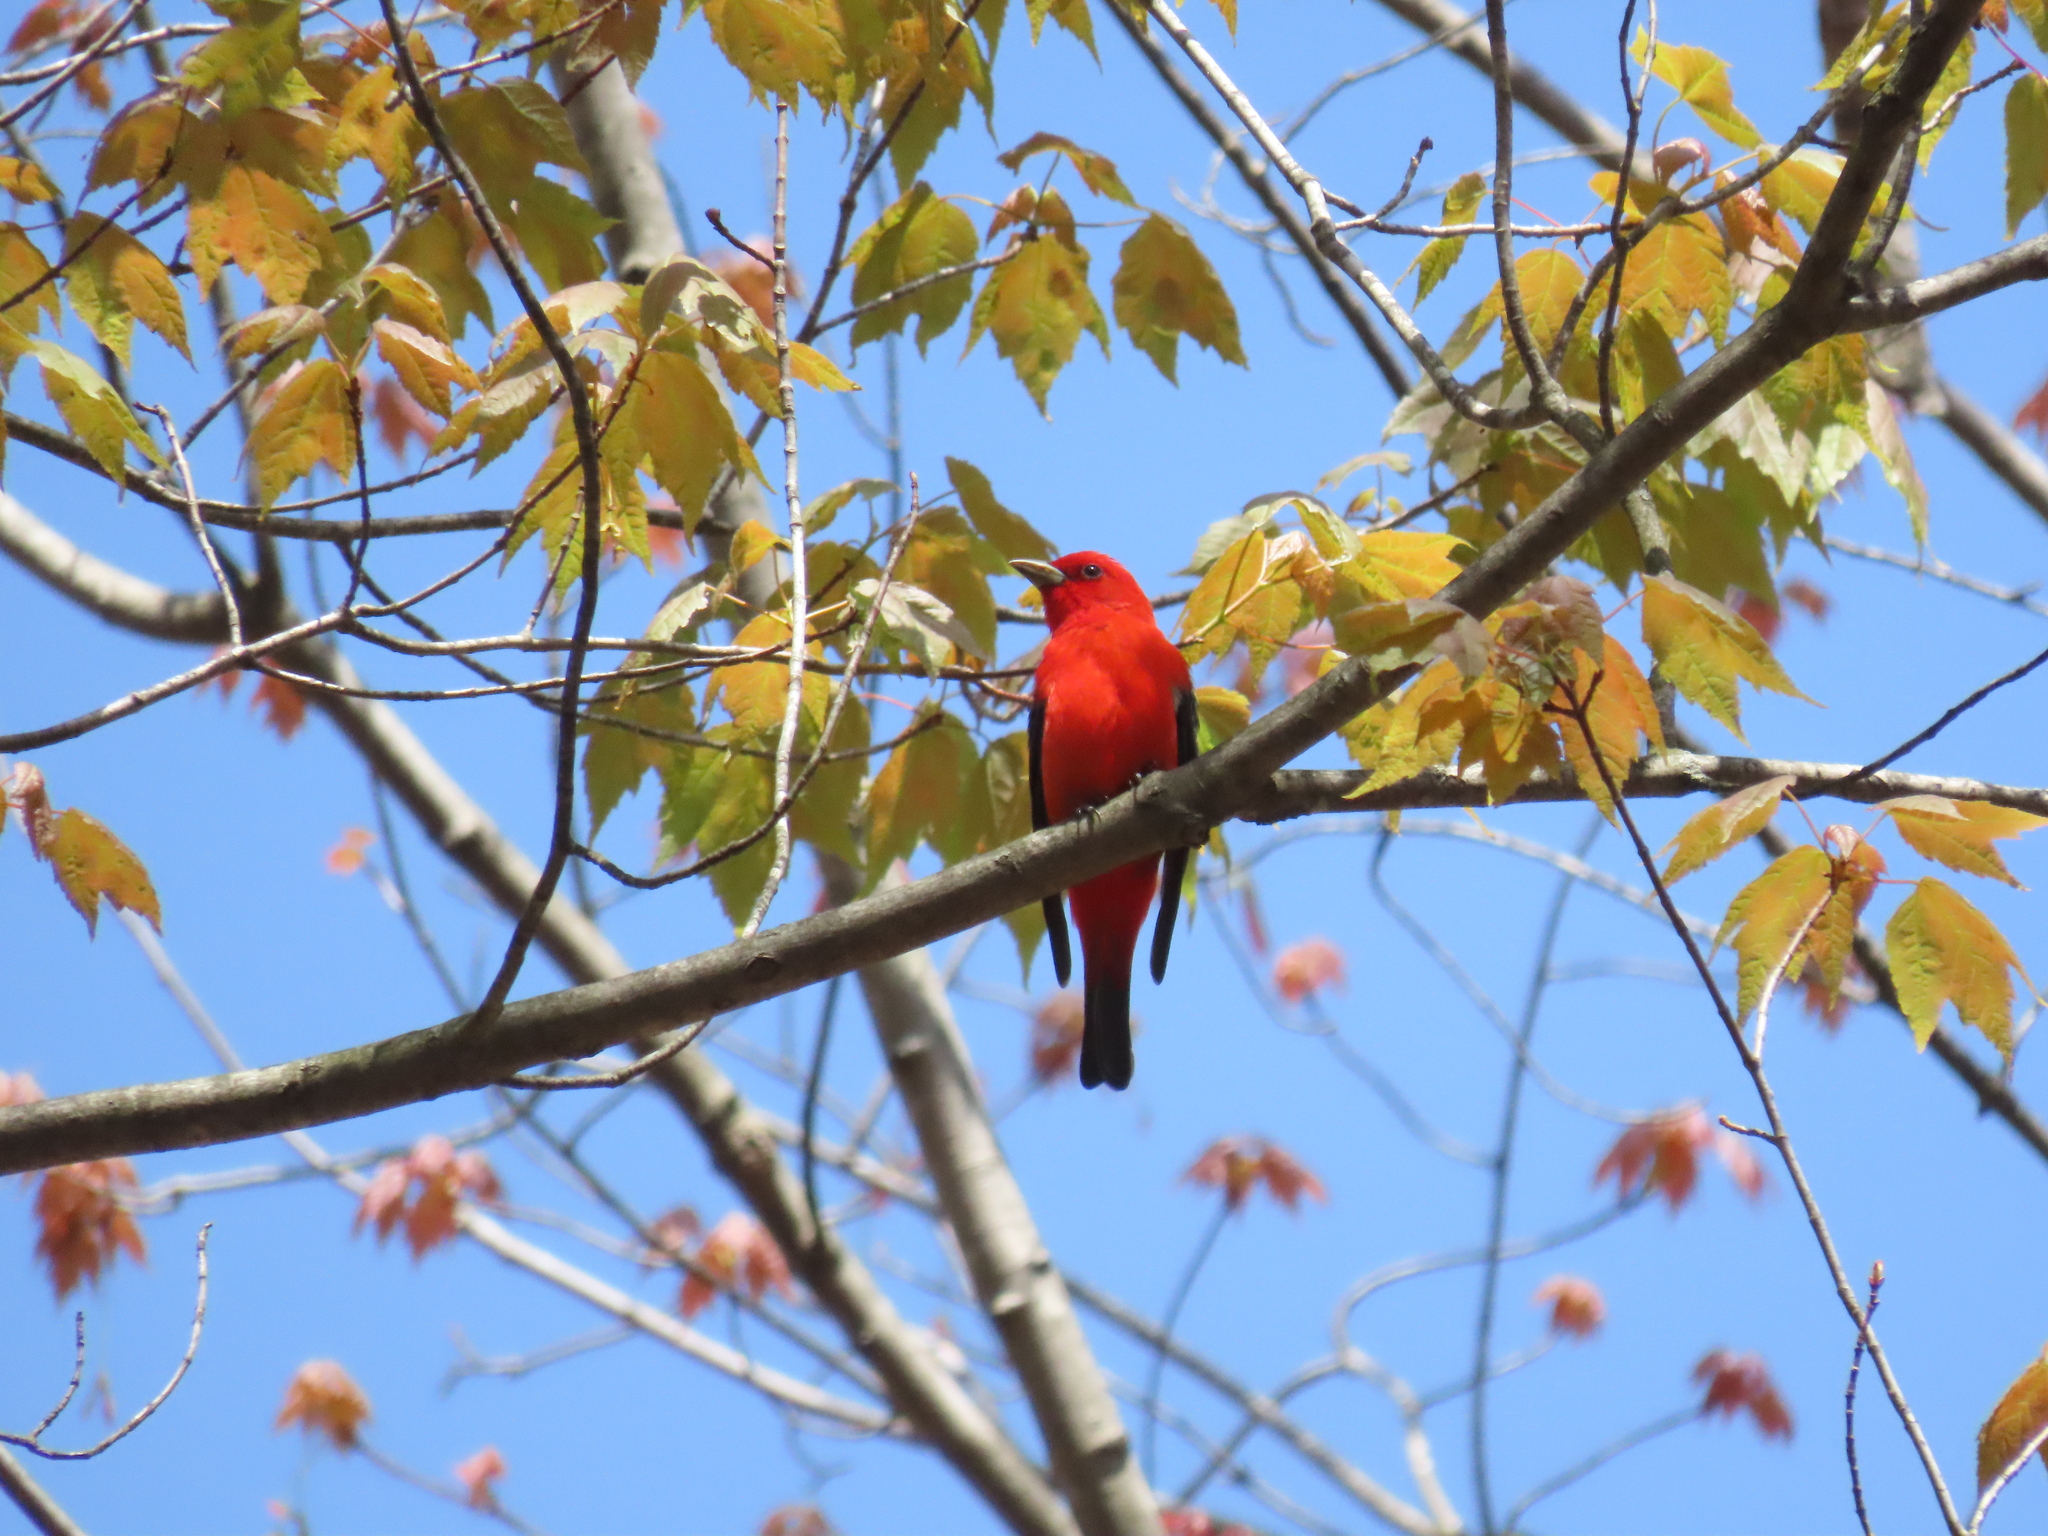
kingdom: Animalia
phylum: Chordata
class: Aves
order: Passeriformes
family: Cardinalidae
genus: Piranga
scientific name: Piranga olivacea
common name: Scarlet tanager
